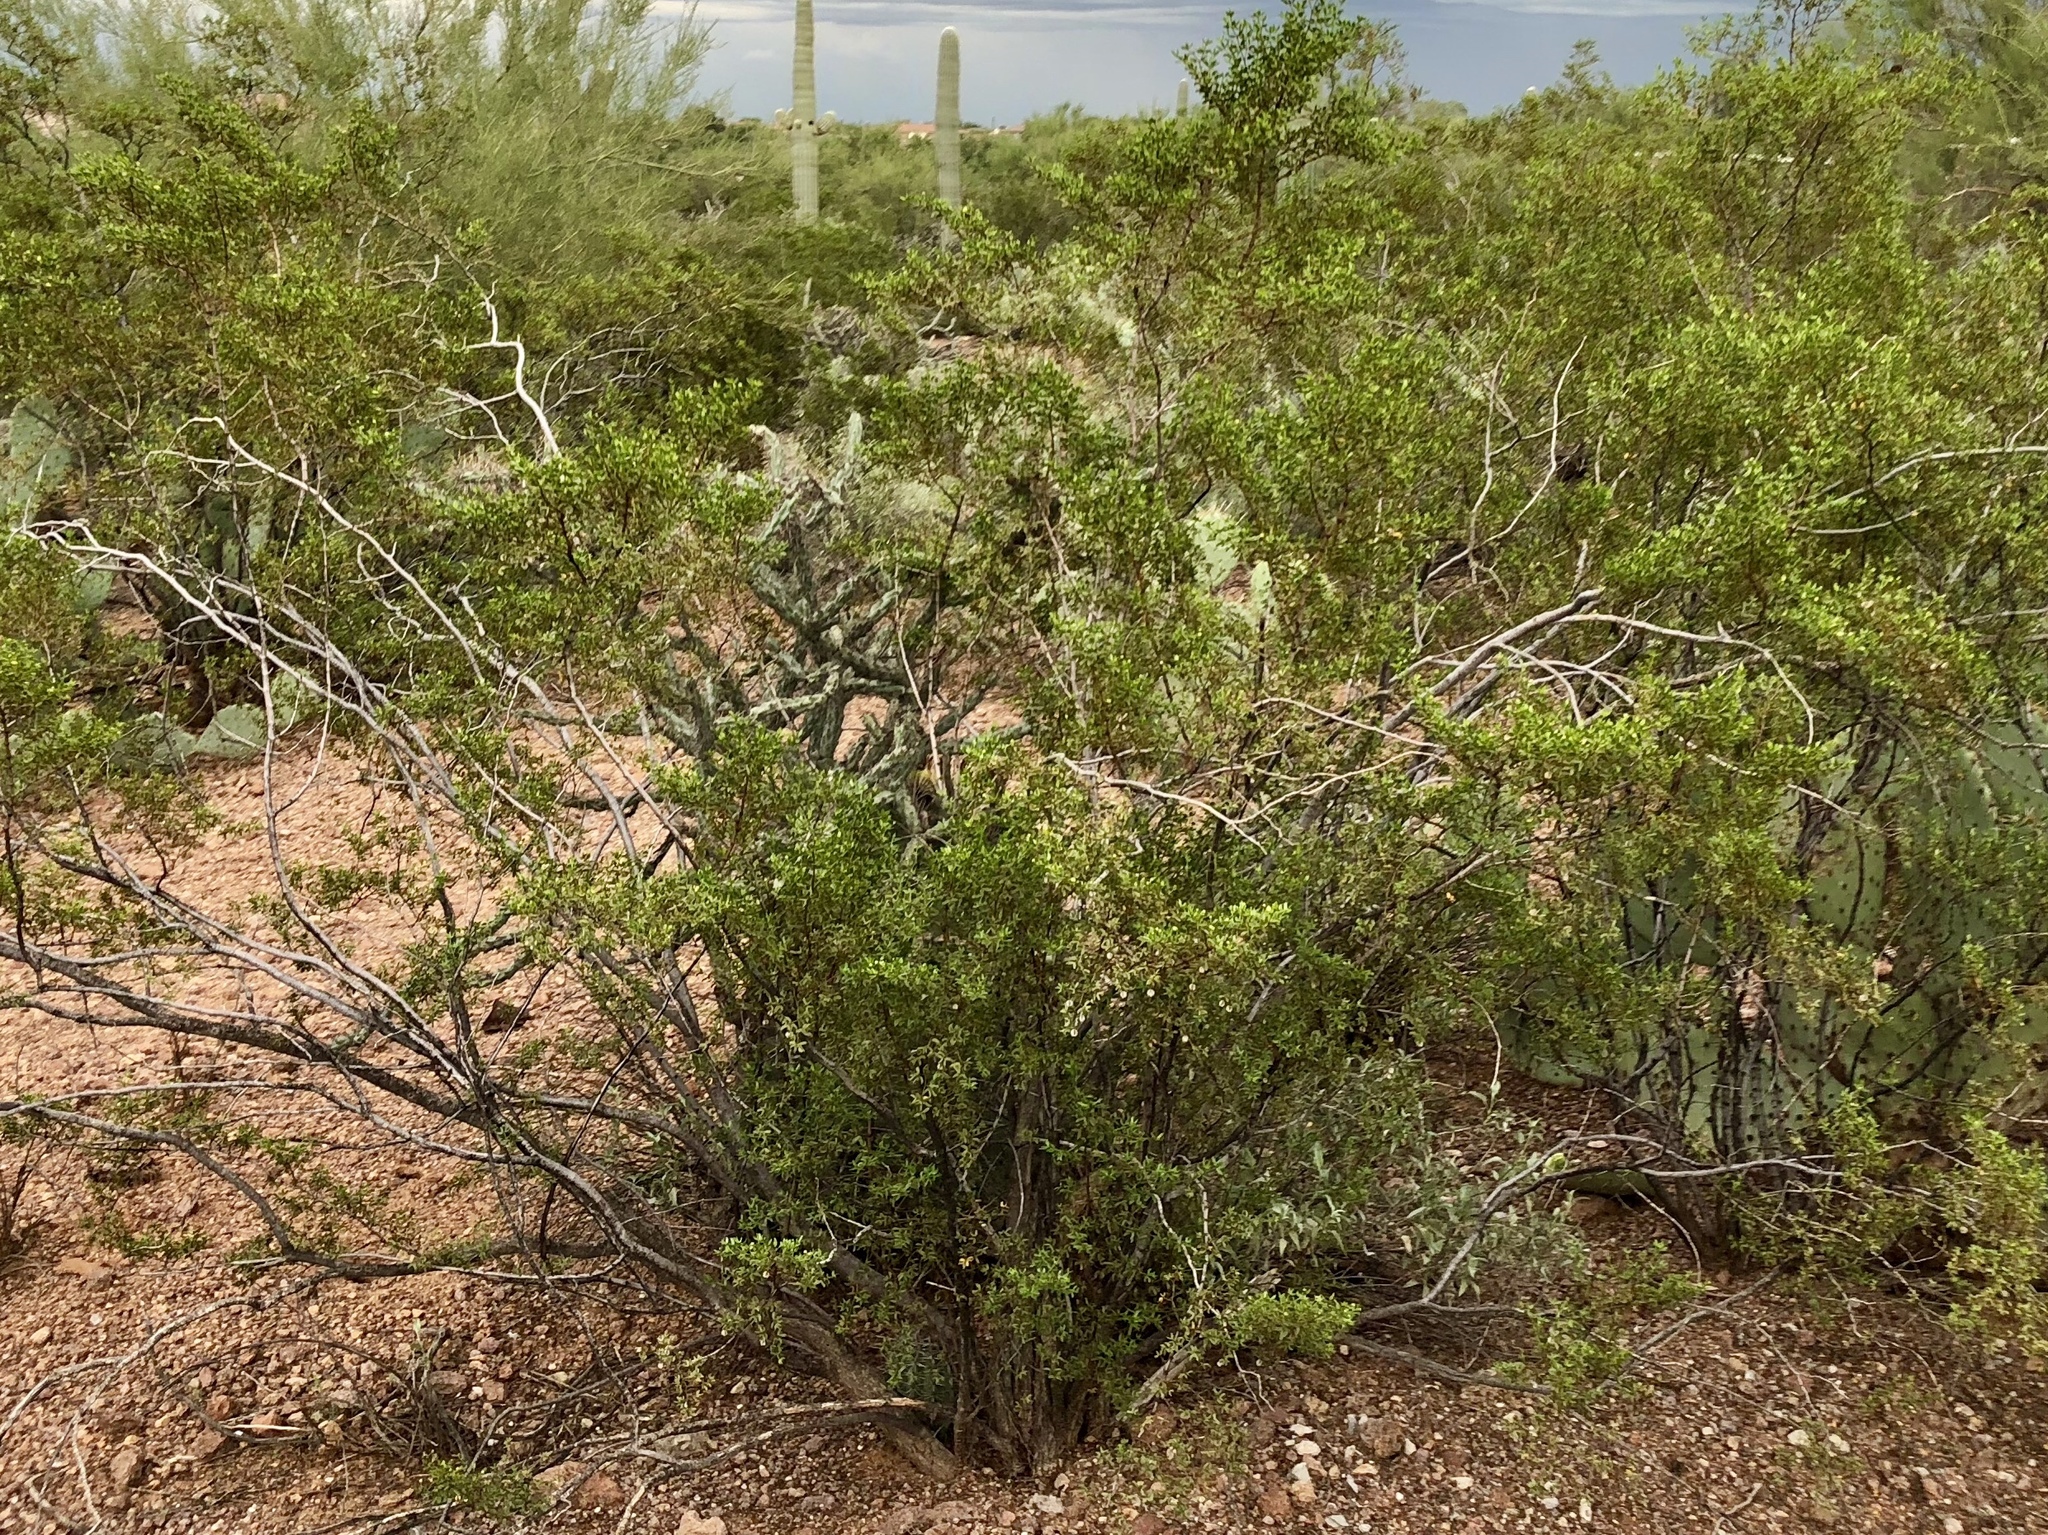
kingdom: Plantae
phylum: Tracheophyta
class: Magnoliopsida
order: Zygophyllales
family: Zygophyllaceae
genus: Larrea
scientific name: Larrea tridentata
